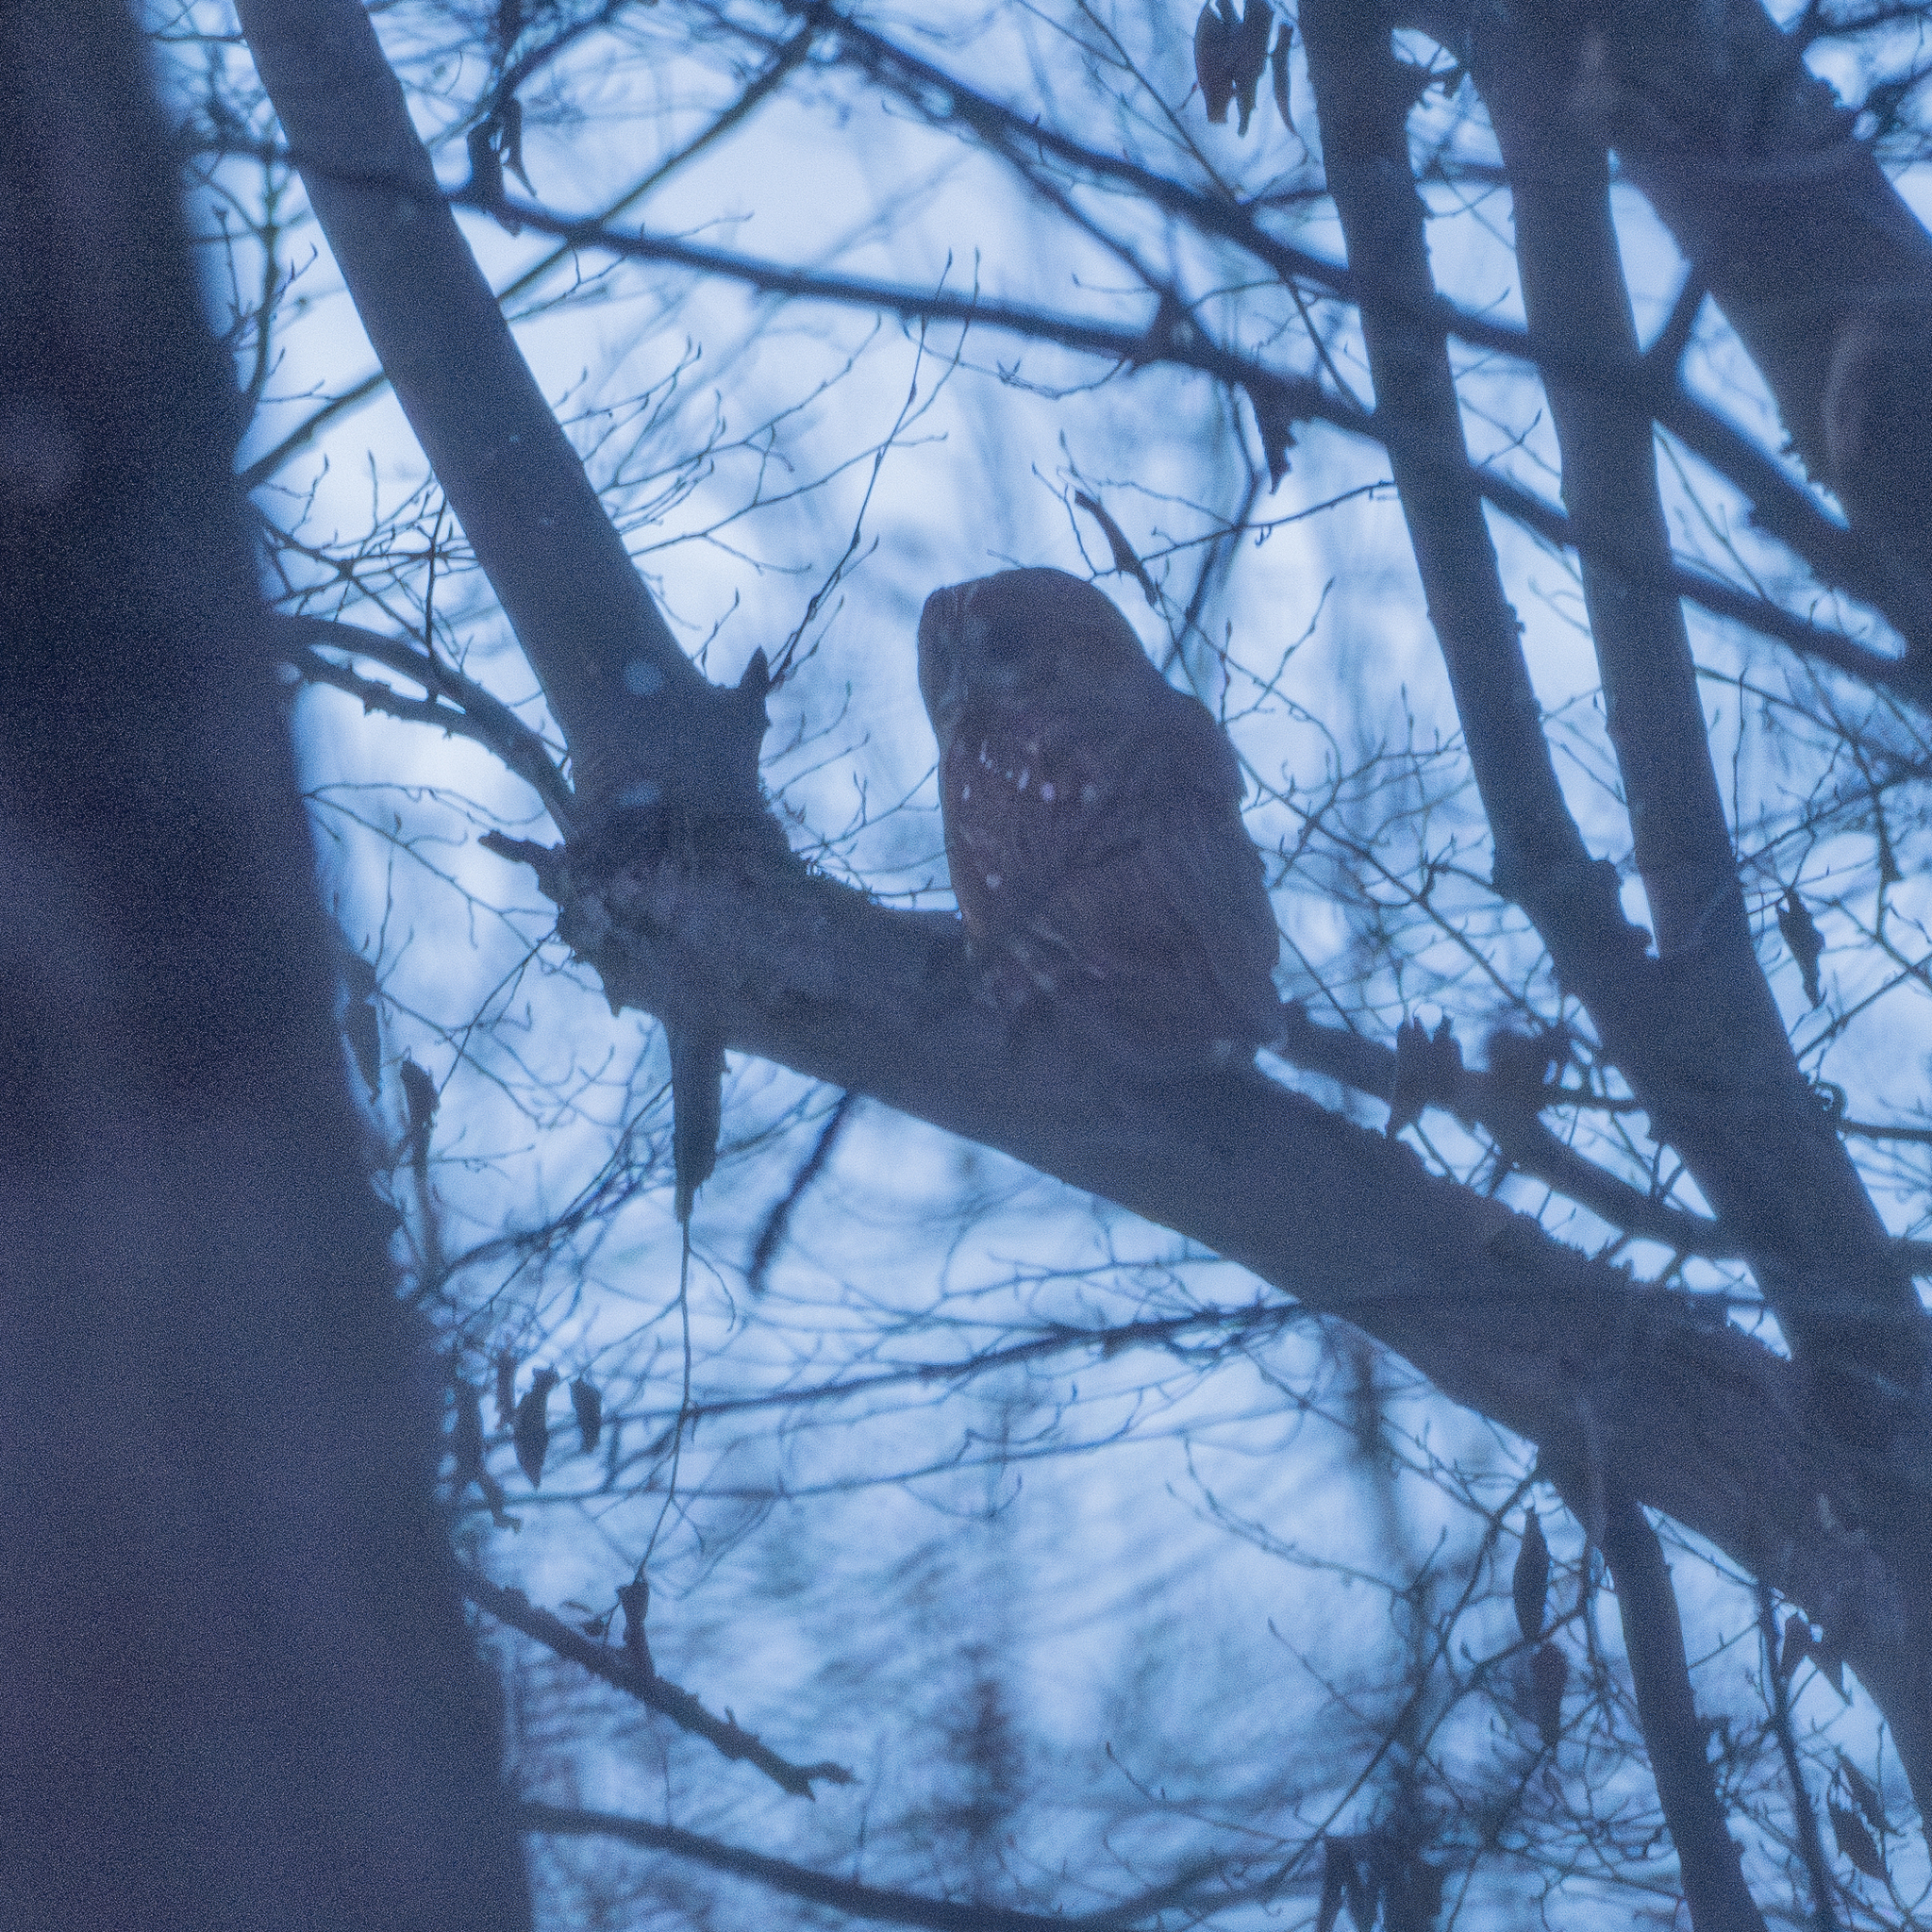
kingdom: Animalia
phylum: Chordata
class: Aves
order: Strigiformes
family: Strigidae
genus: Strix
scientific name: Strix aluco
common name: Tawny owl
